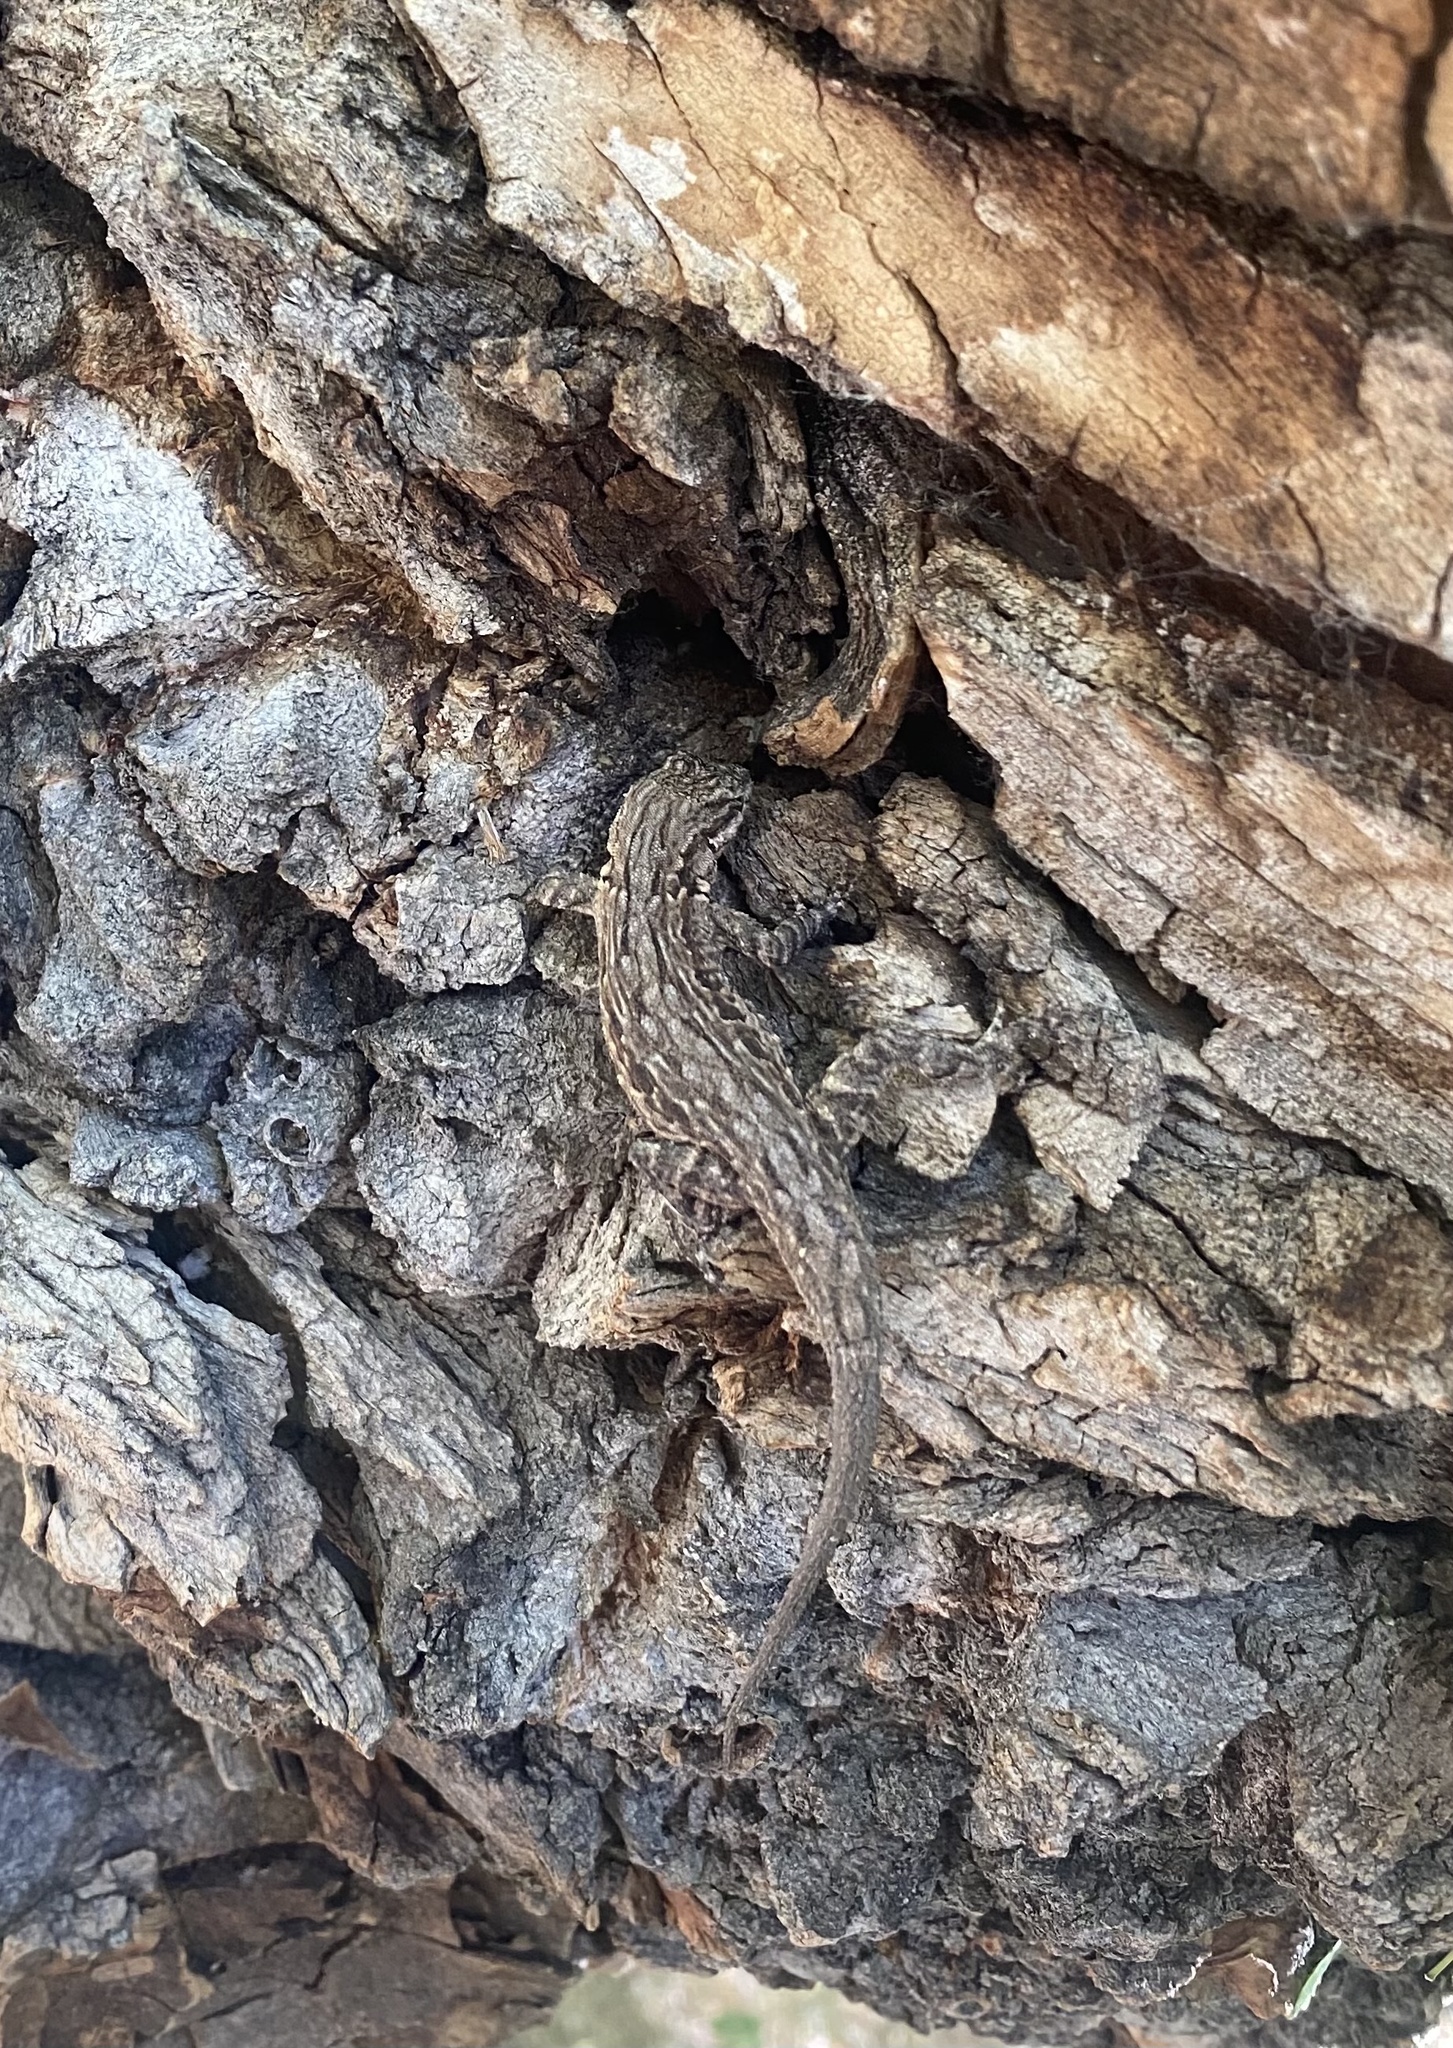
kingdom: Animalia
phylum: Chordata
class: Squamata
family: Phrynosomatidae
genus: Urosaurus
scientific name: Urosaurus ornatus
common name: Ornate tree lizard
